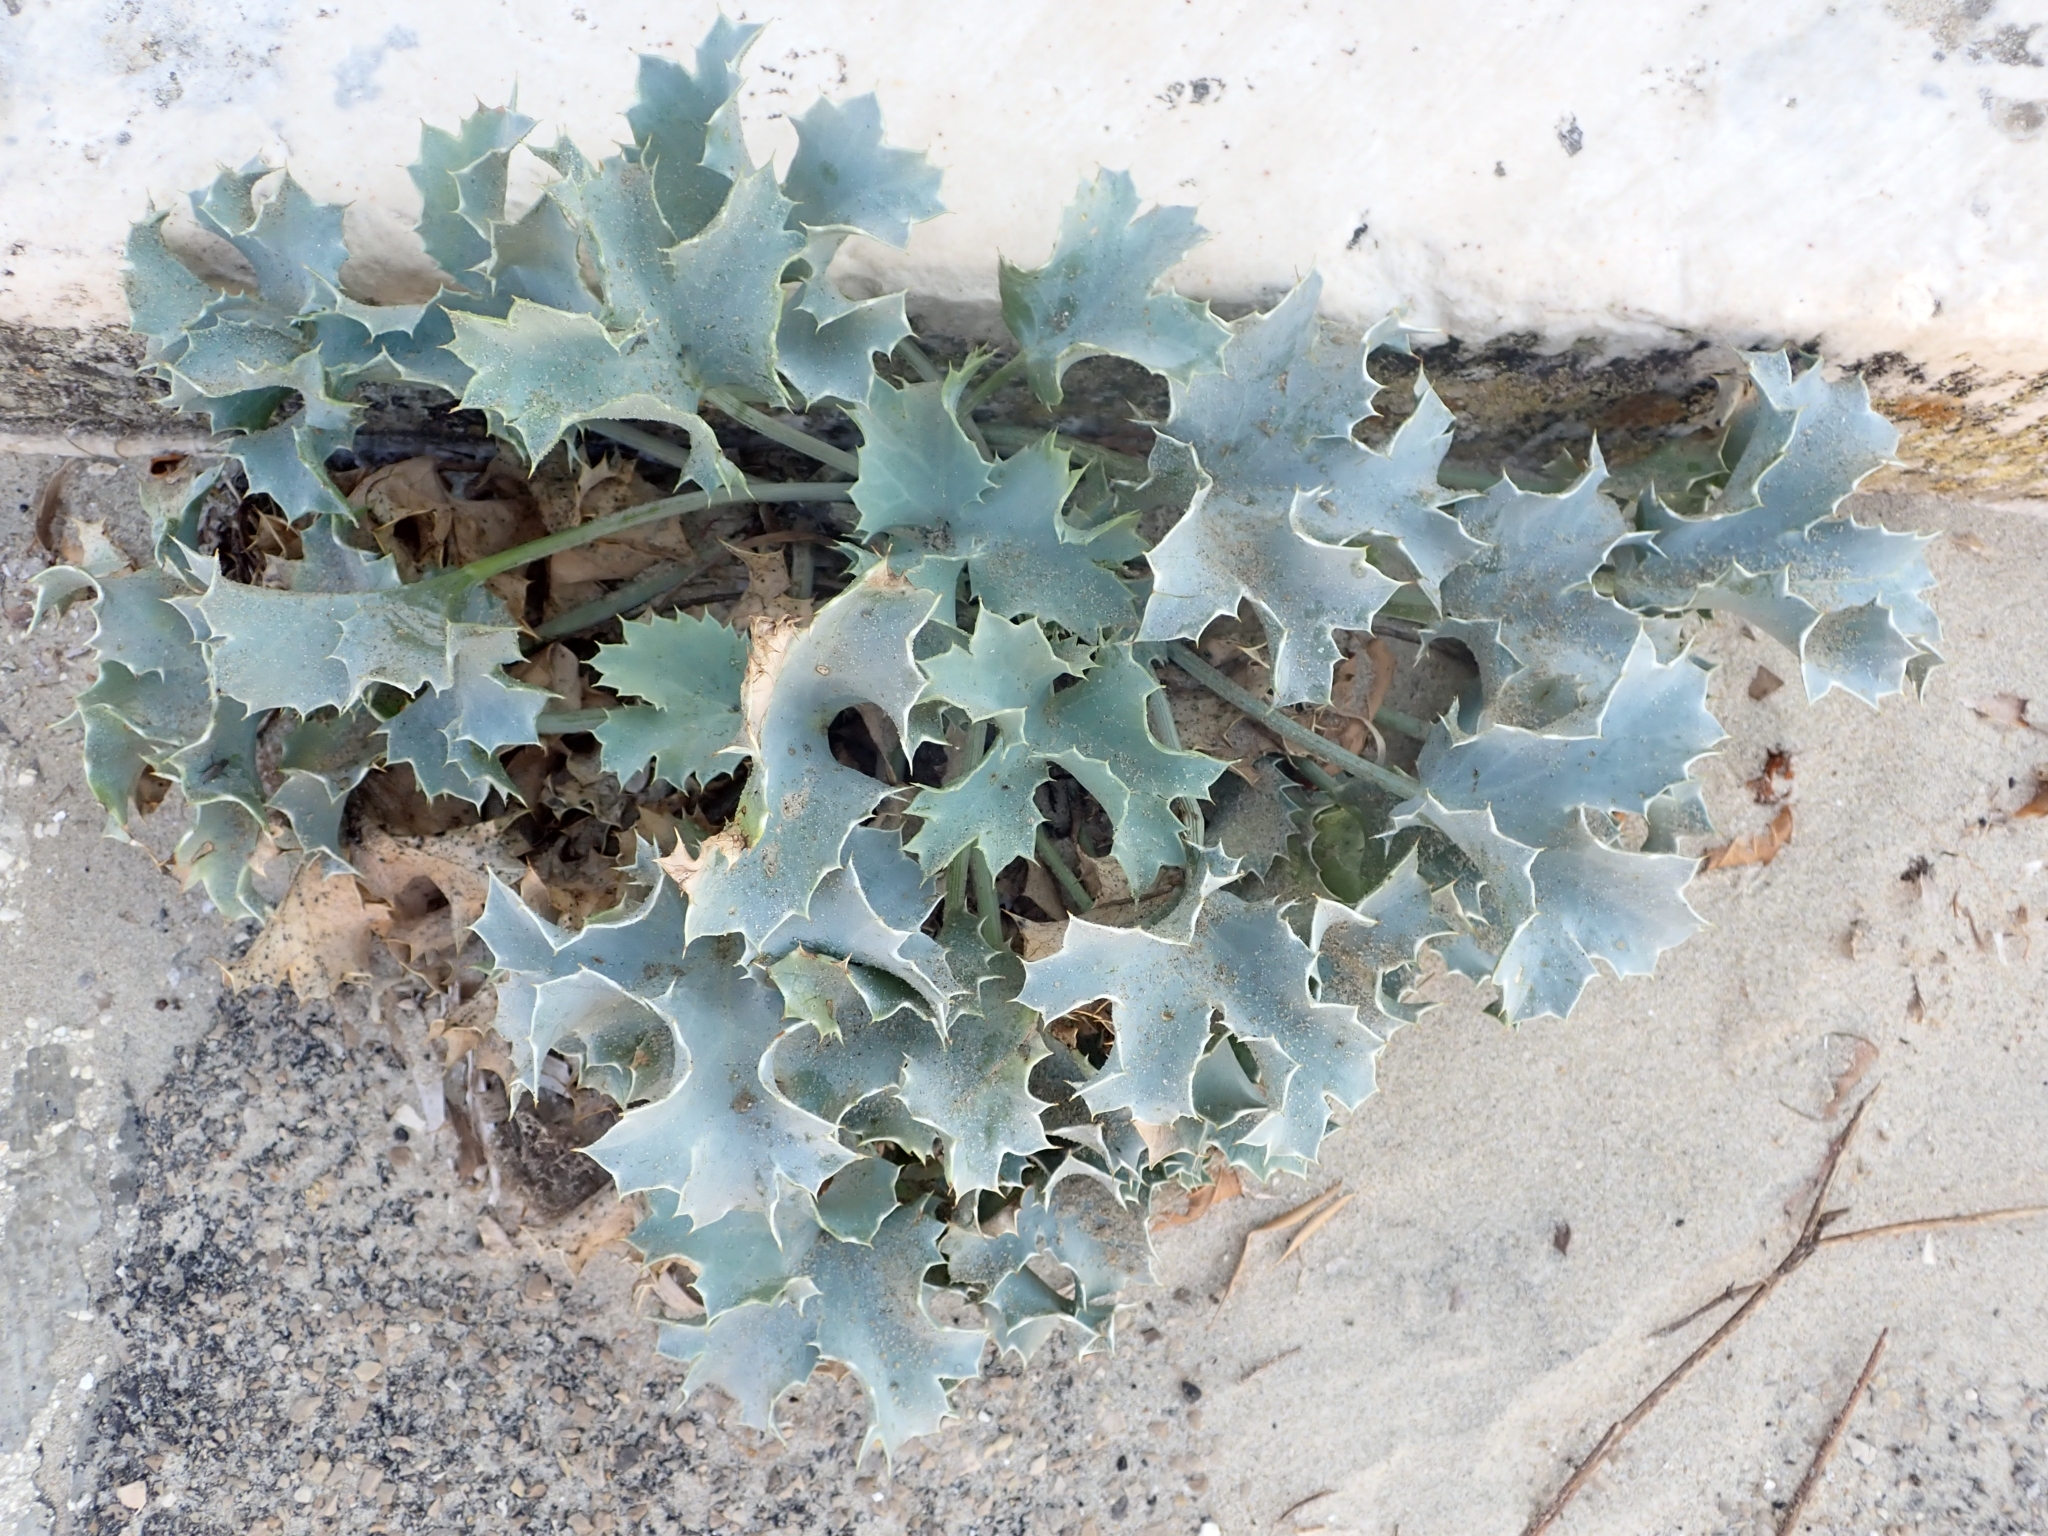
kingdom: Plantae
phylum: Tracheophyta
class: Magnoliopsida
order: Apiales
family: Apiaceae
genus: Eryngium
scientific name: Eryngium maritimum
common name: Sea-holly
